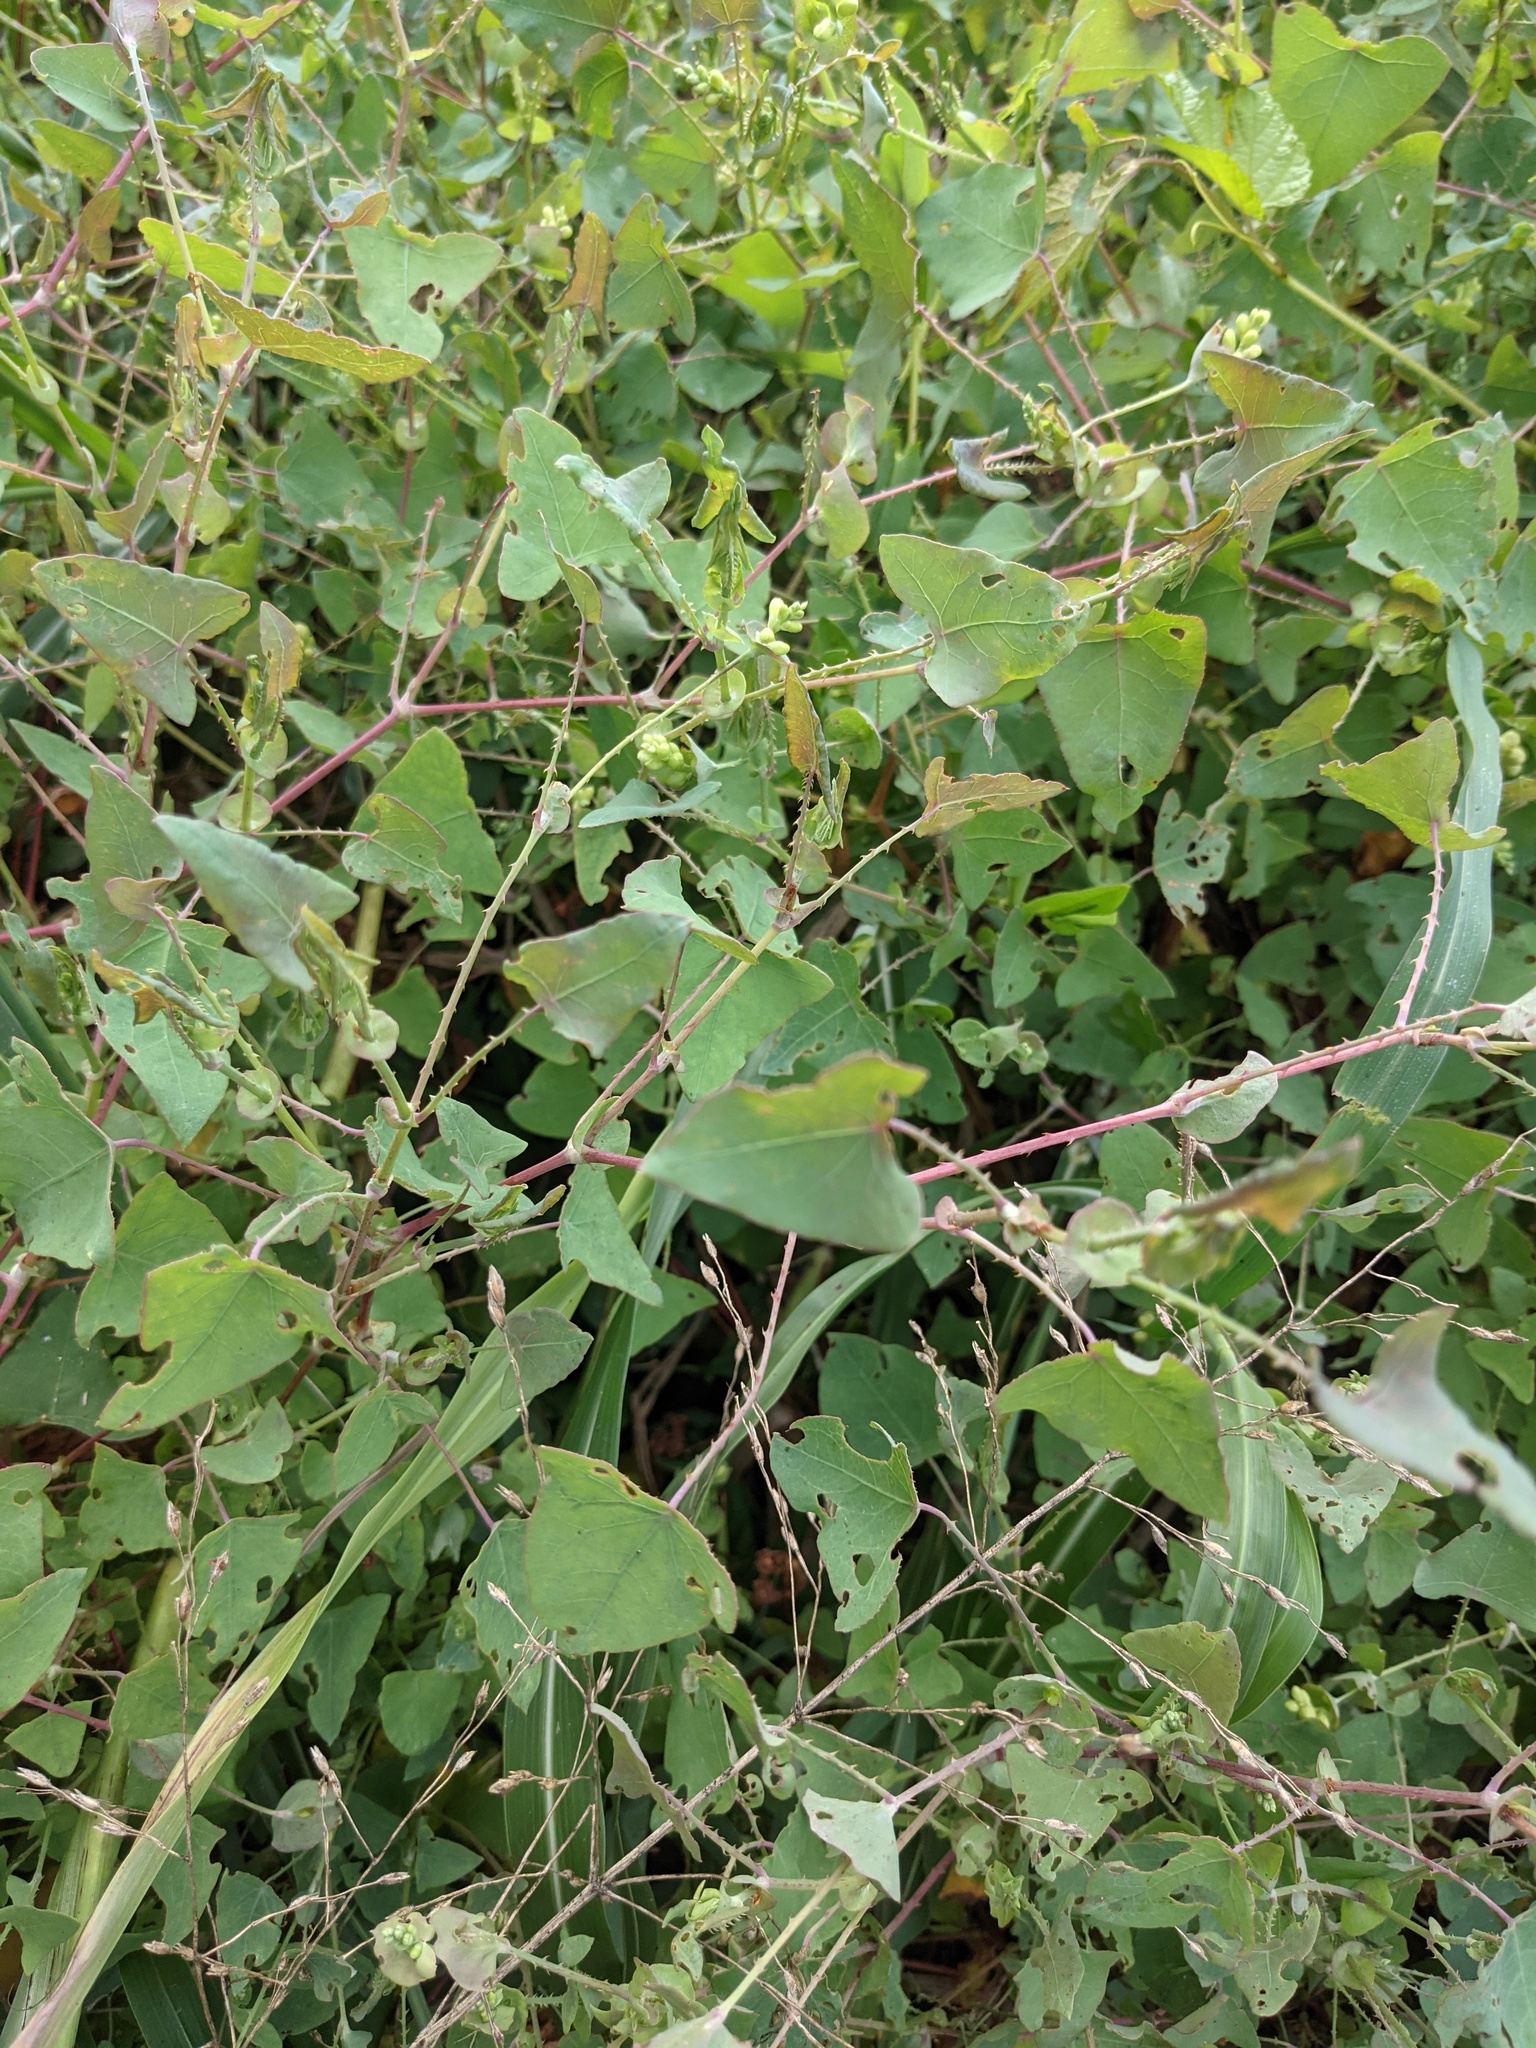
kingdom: Plantae
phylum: Tracheophyta
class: Magnoliopsida
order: Caryophyllales
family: Polygonaceae
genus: Persicaria
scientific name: Persicaria perfoliata
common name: Asiatic tearthumb
